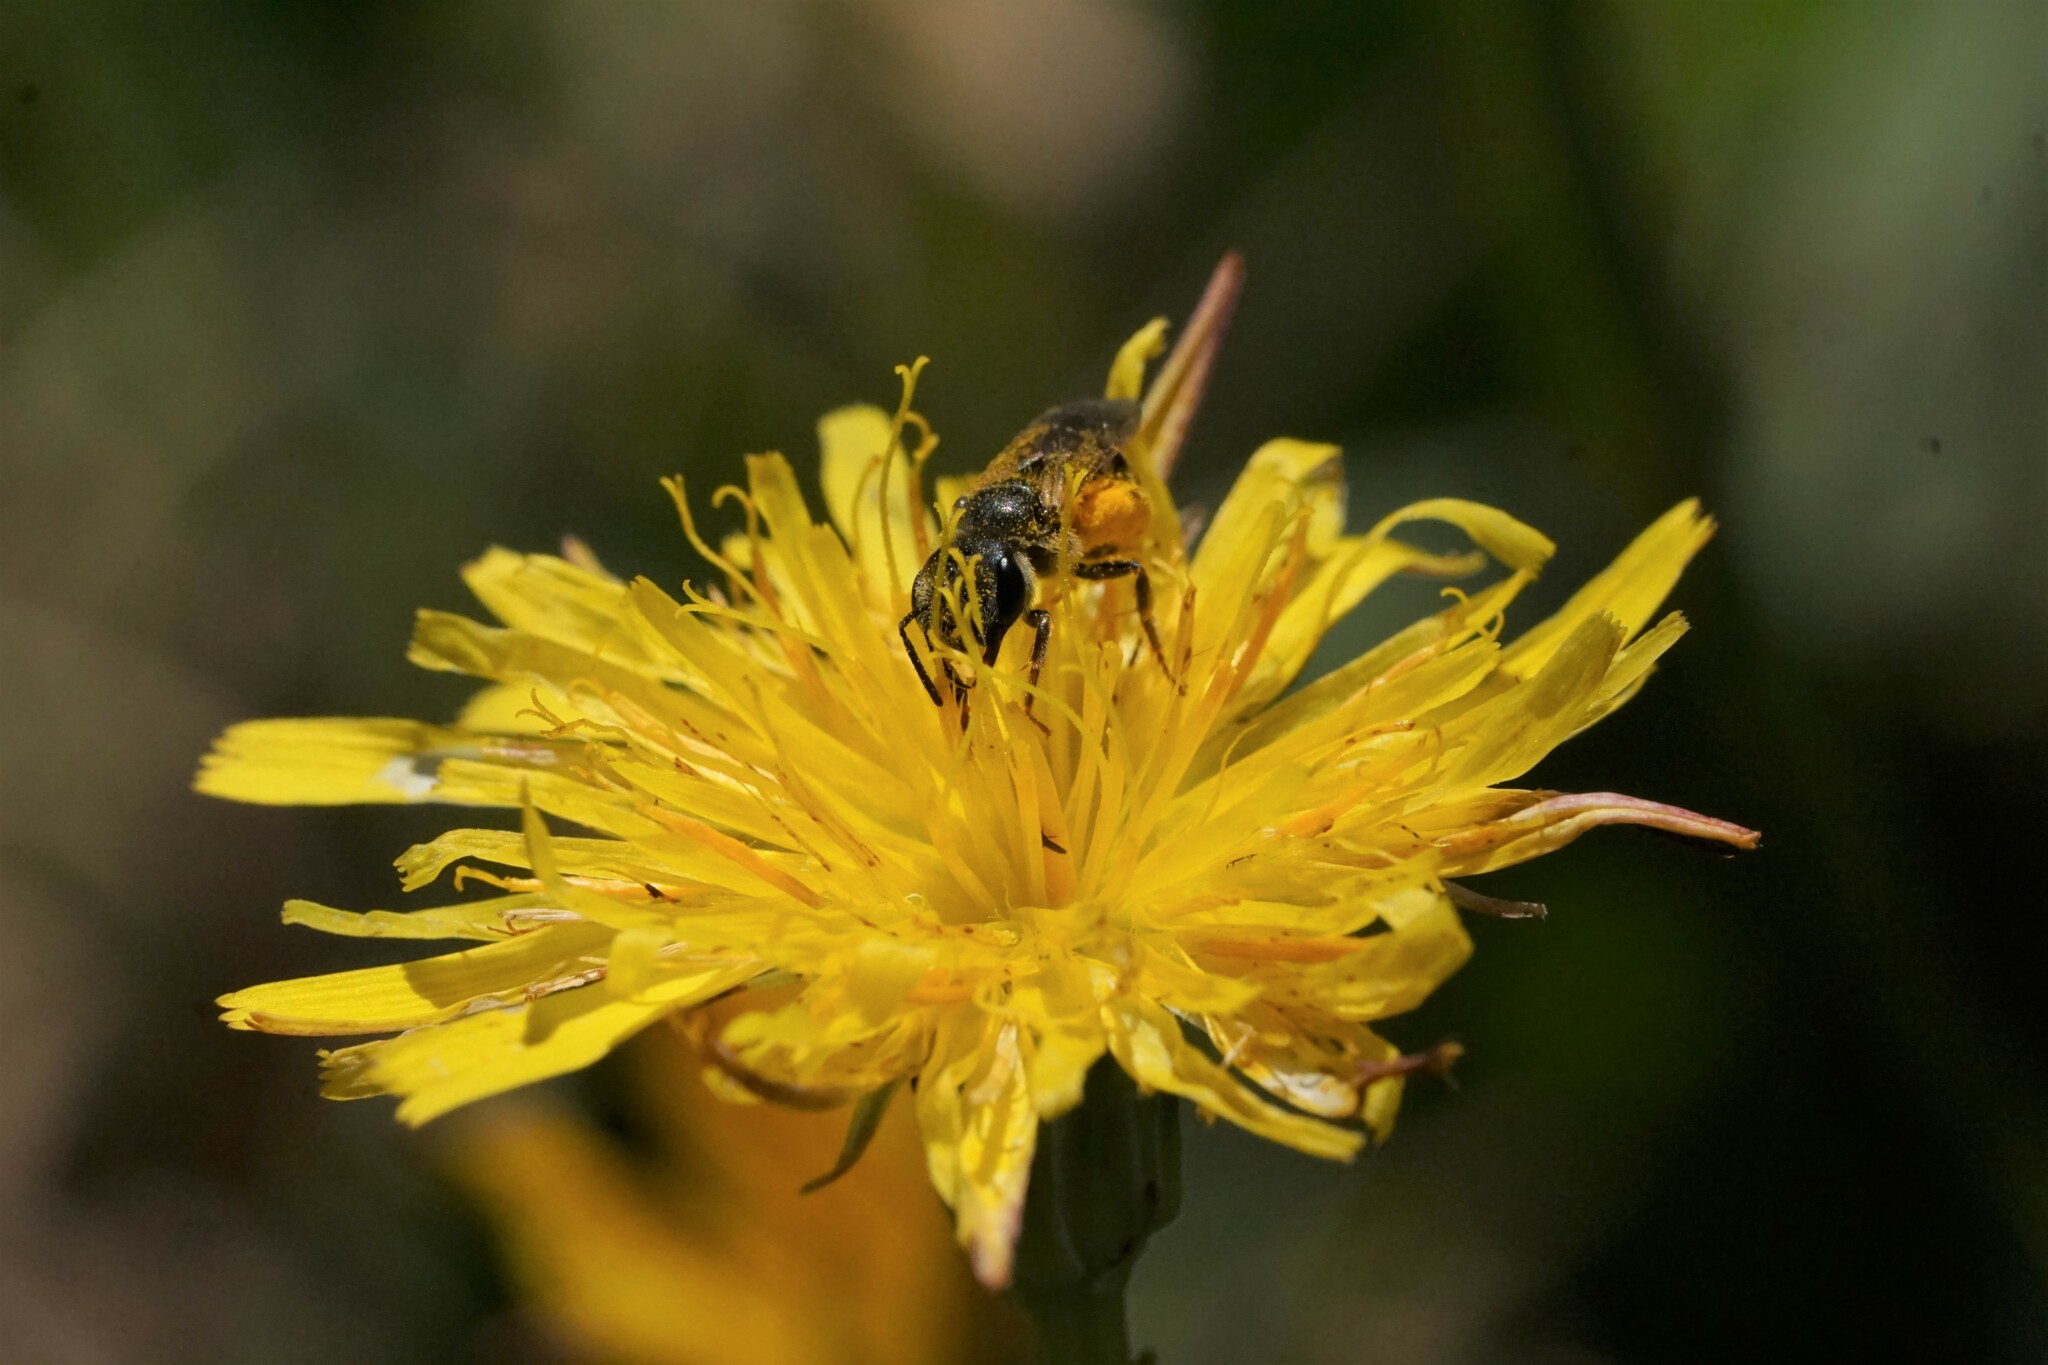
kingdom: Animalia
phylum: Arthropoda
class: Insecta
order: Hymenoptera
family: Halictidae
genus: Halictus
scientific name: Halictus ligatus
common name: Ligated furrow bee
